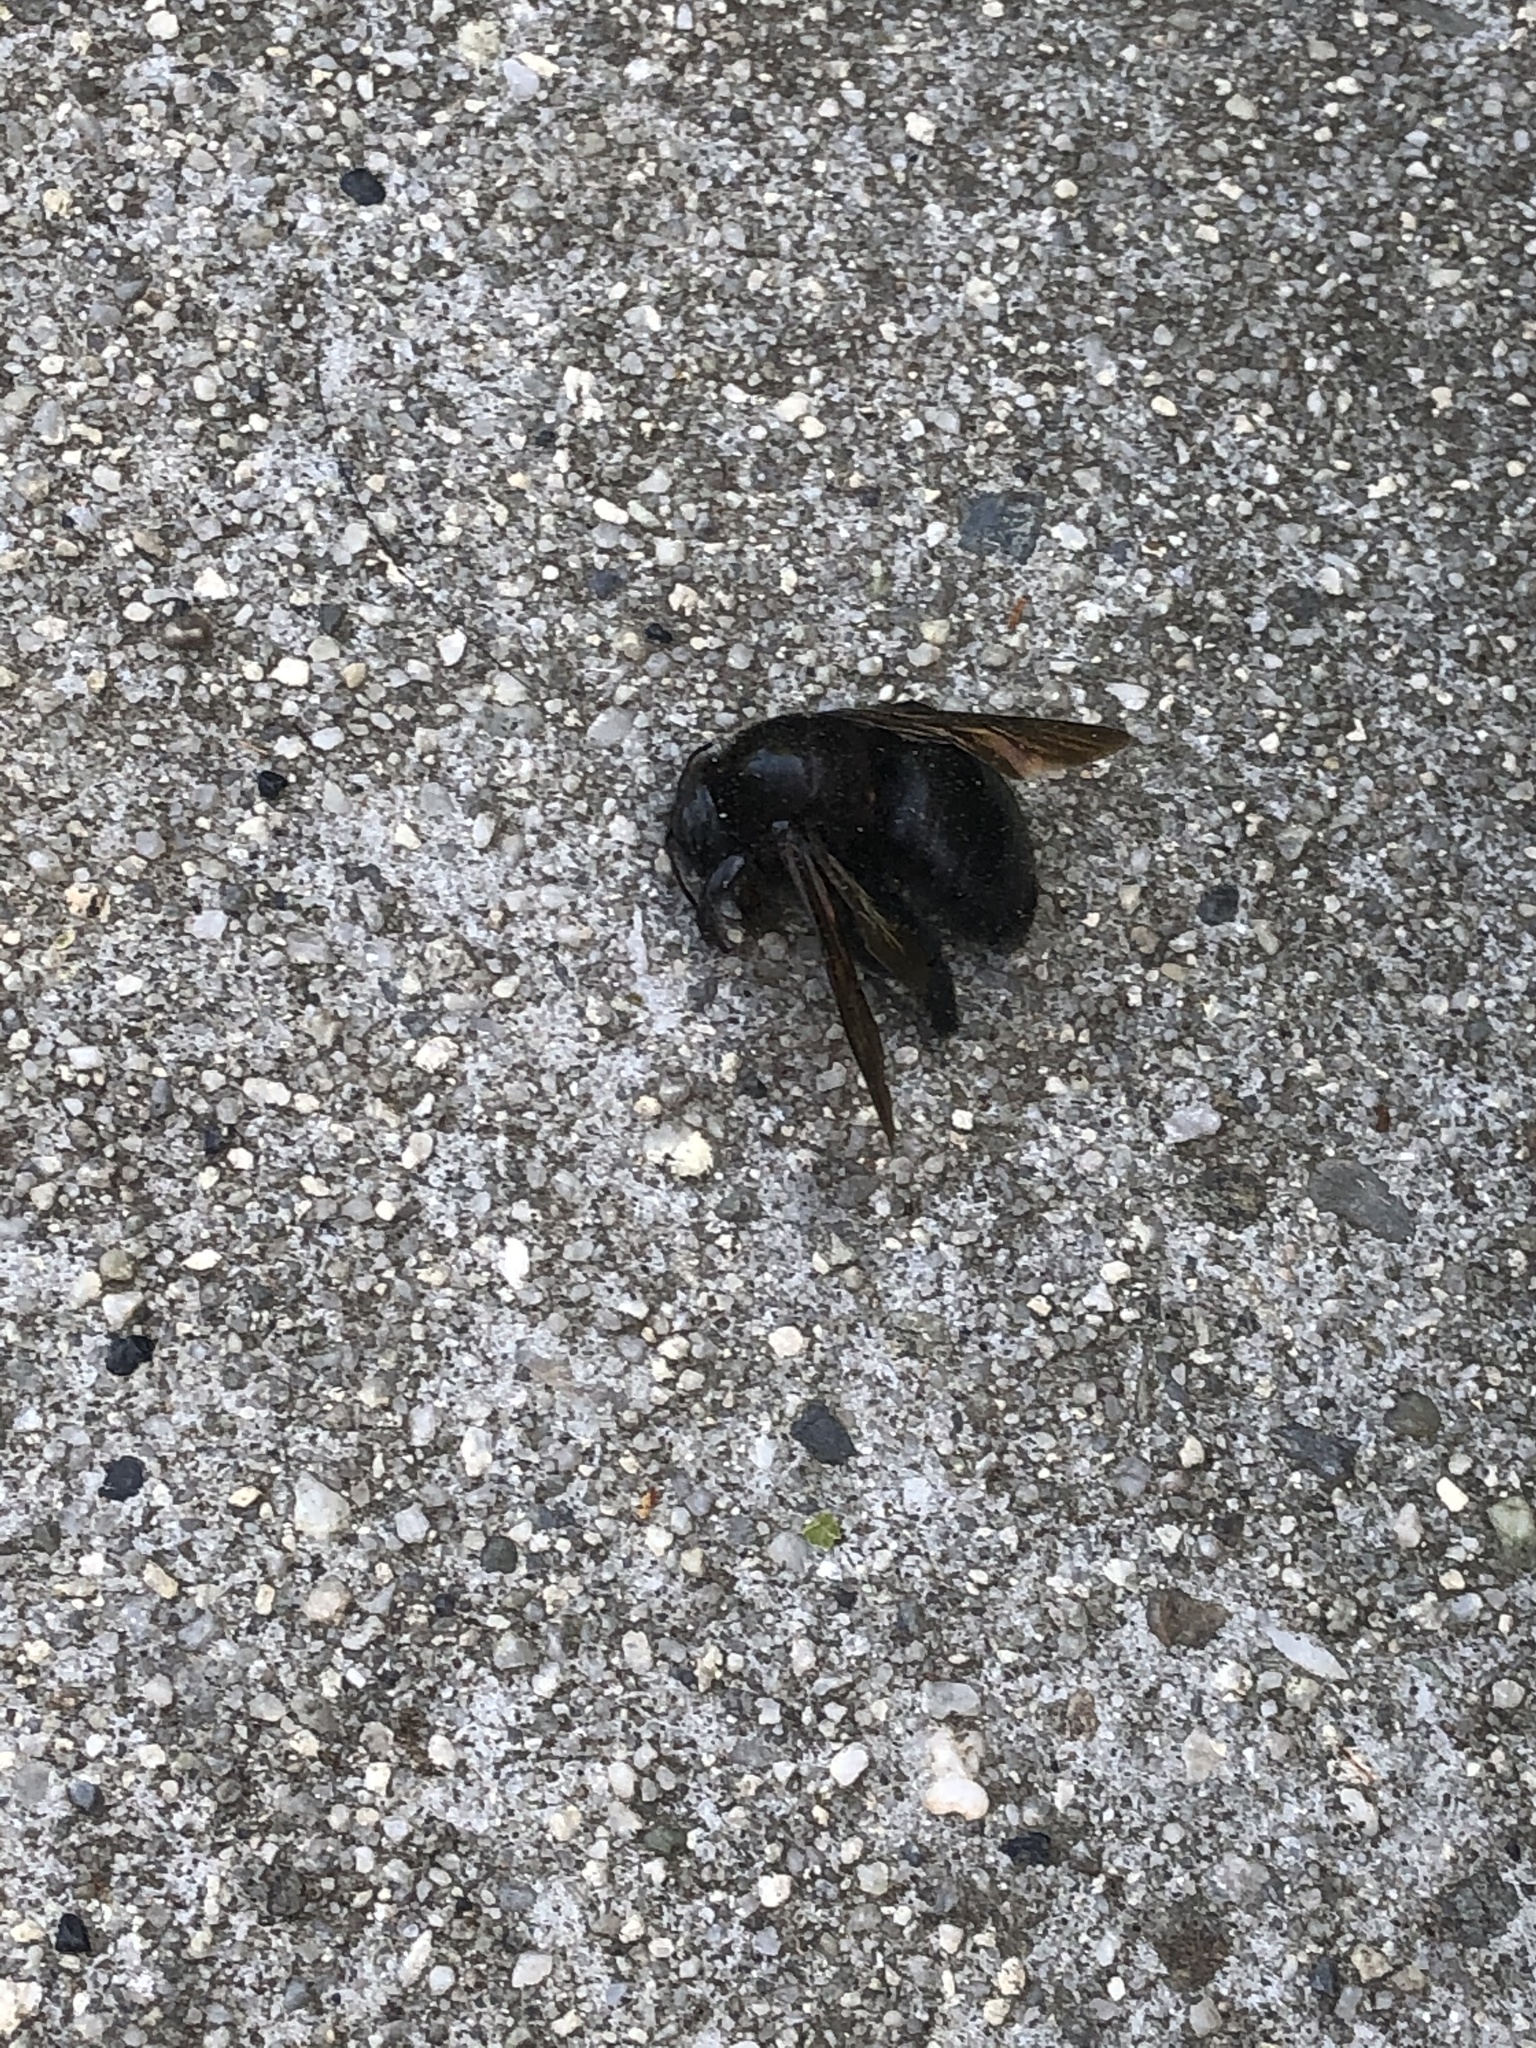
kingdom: Animalia
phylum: Arthropoda
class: Insecta
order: Hymenoptera
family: Apidae
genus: Xylocopa
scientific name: Xylocopa sonorina
